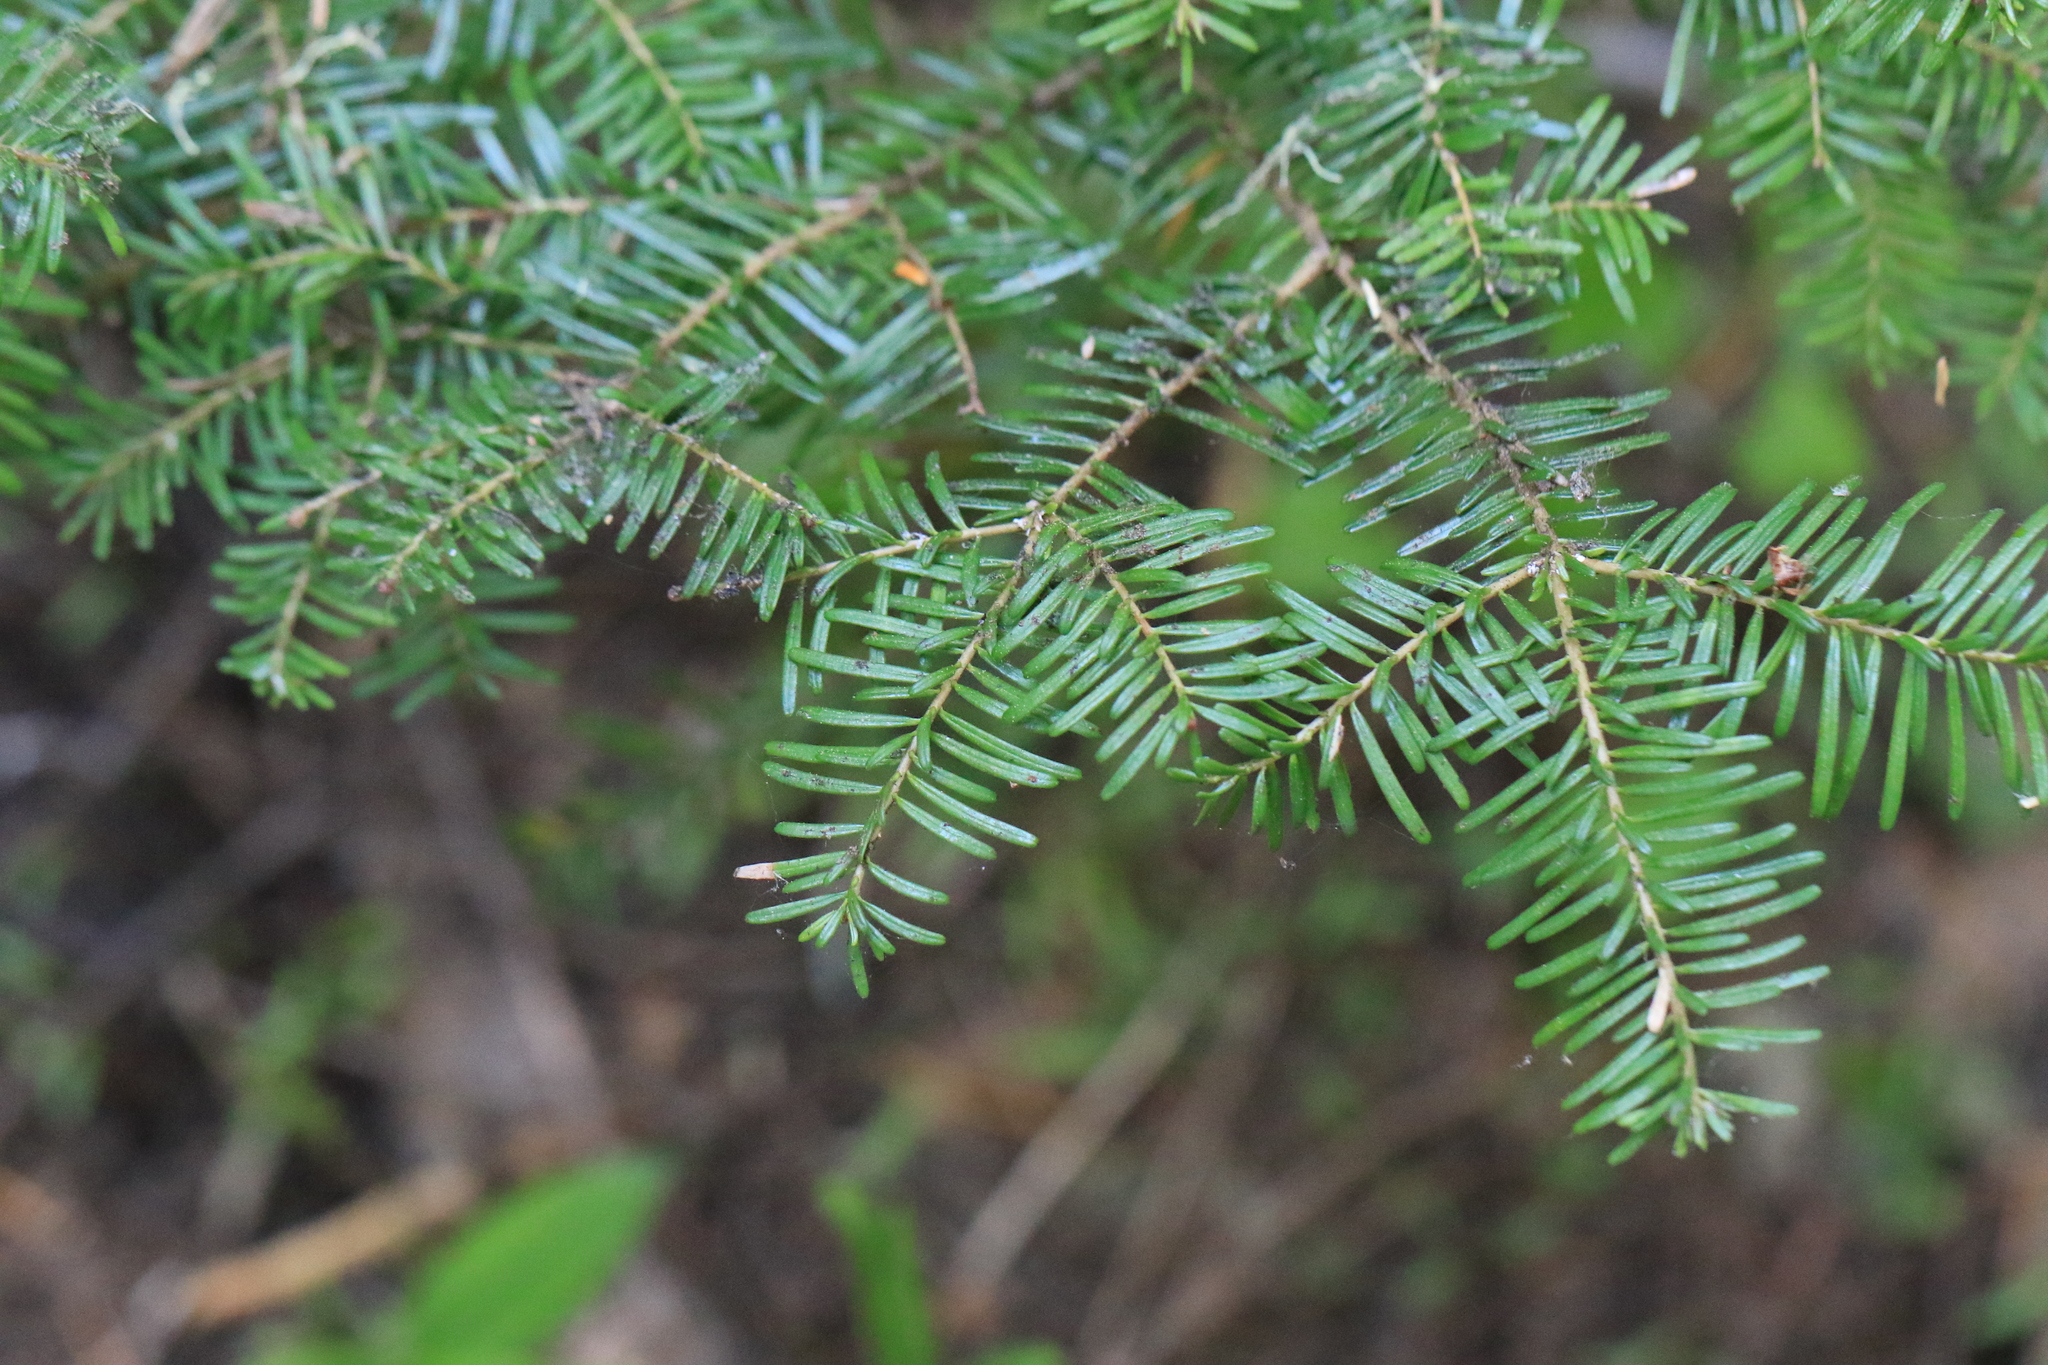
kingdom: Plantae
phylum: Tracheophyta
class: Pinopsida
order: Pinales
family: Pinaceae
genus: Abies
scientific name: Abies amabilis
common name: Pacific silver fir
